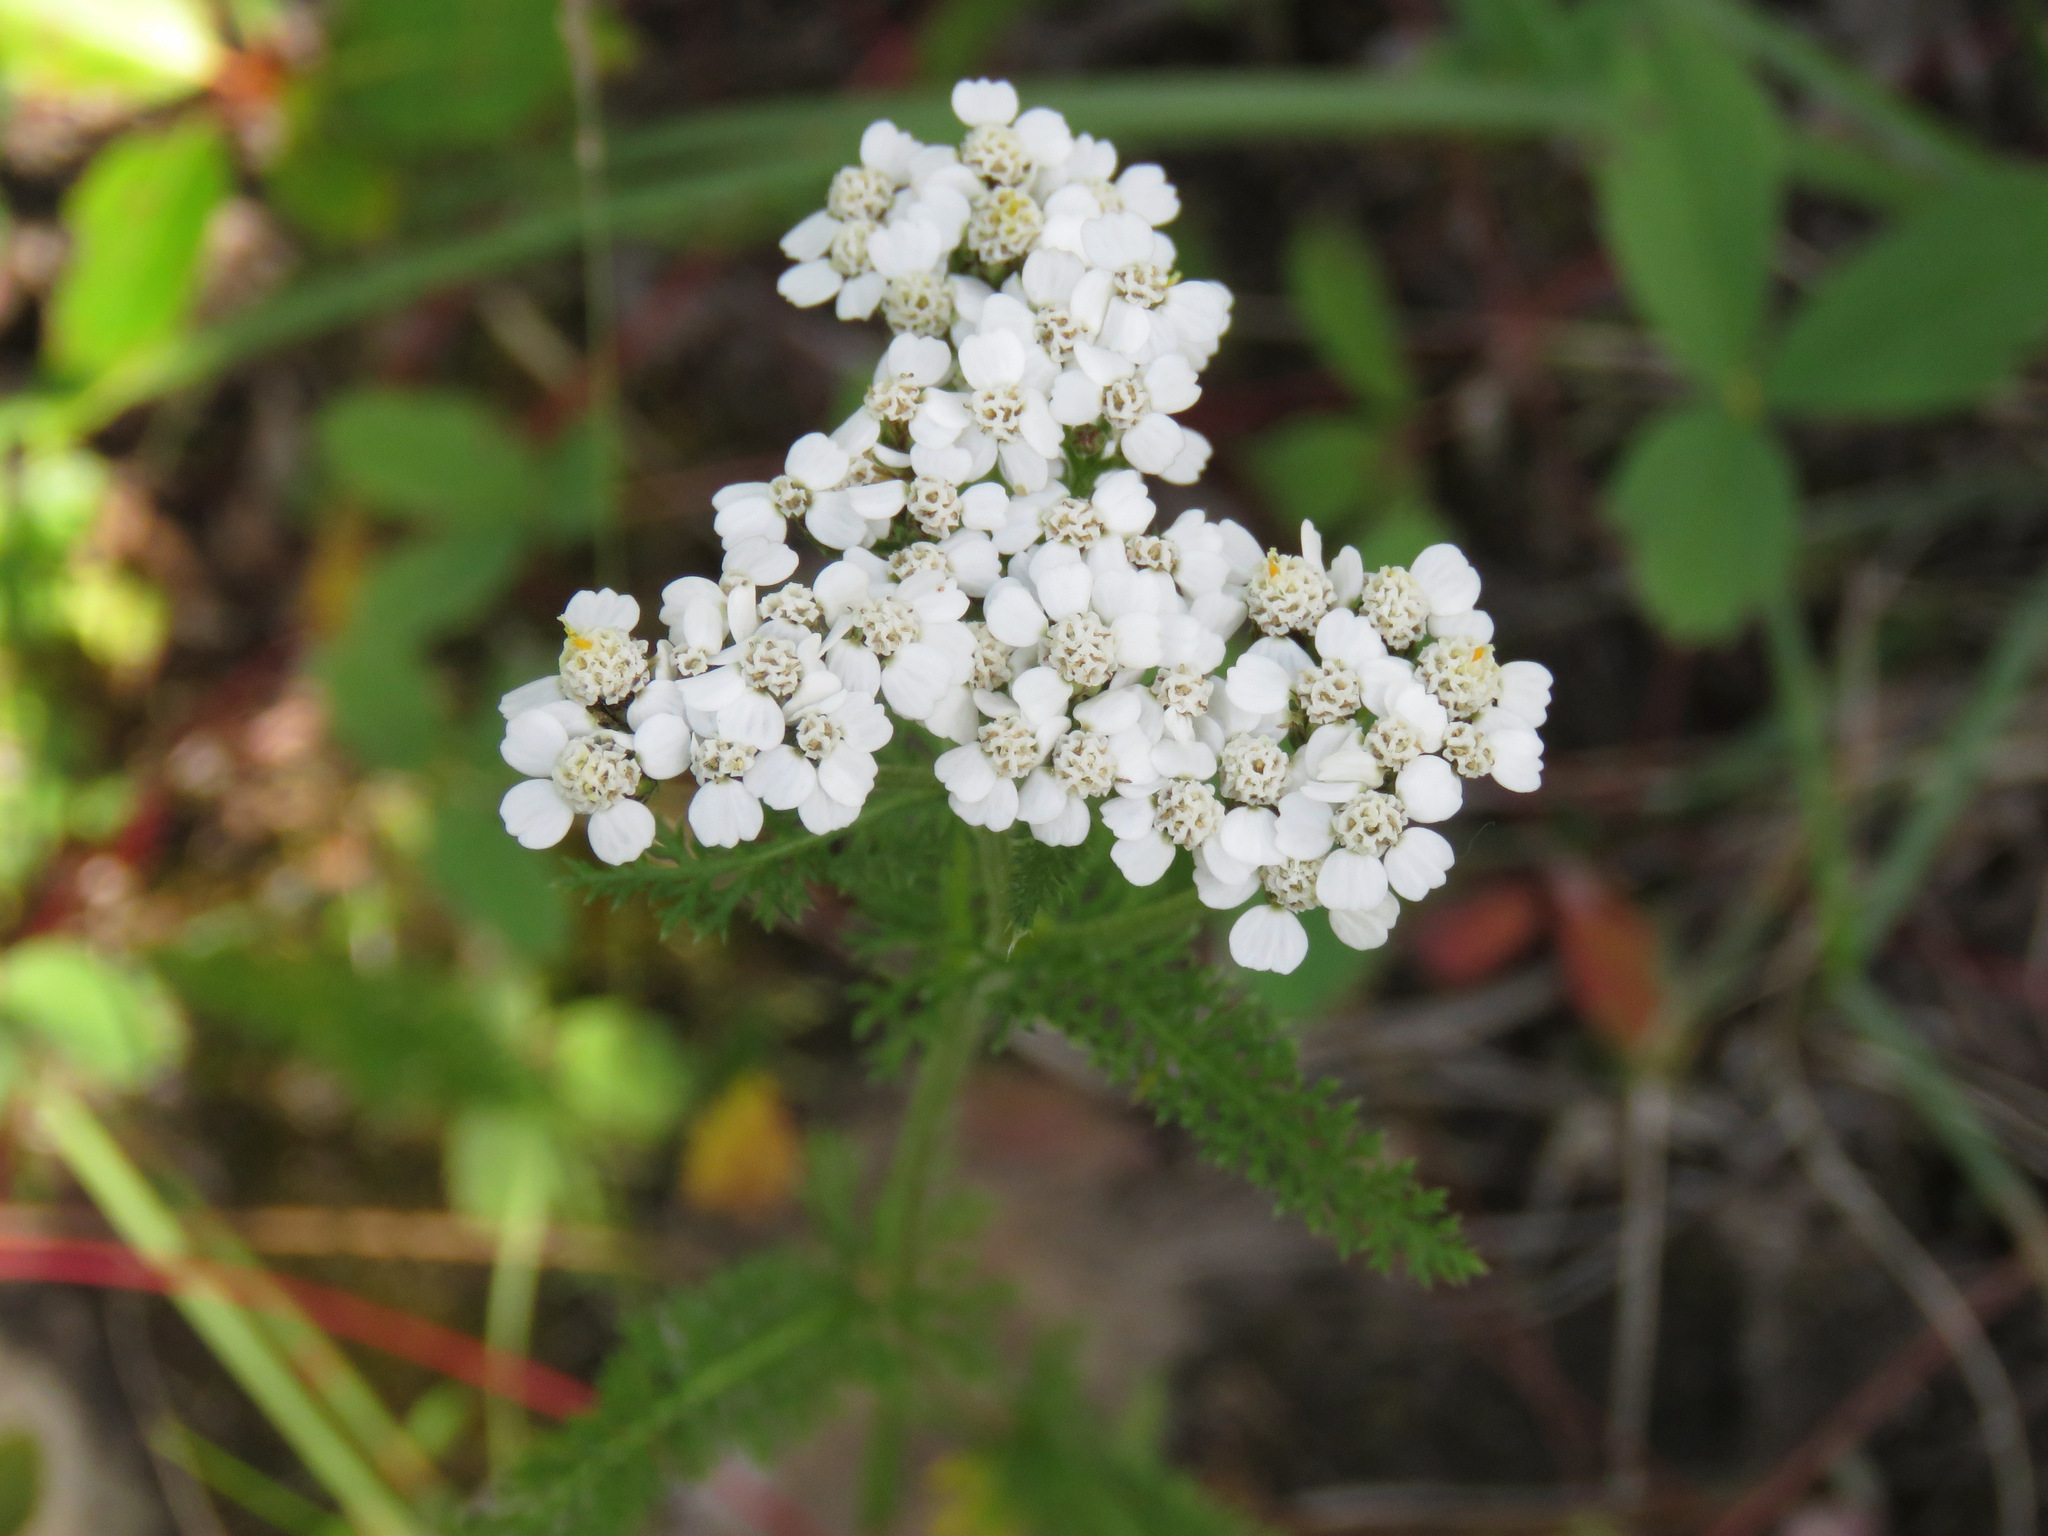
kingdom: Plantae
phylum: Tracheophyta
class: Magnoliopsida
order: Asterales
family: Asteraceae
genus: Achillea
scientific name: Achillea millefolium
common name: Yarrow
